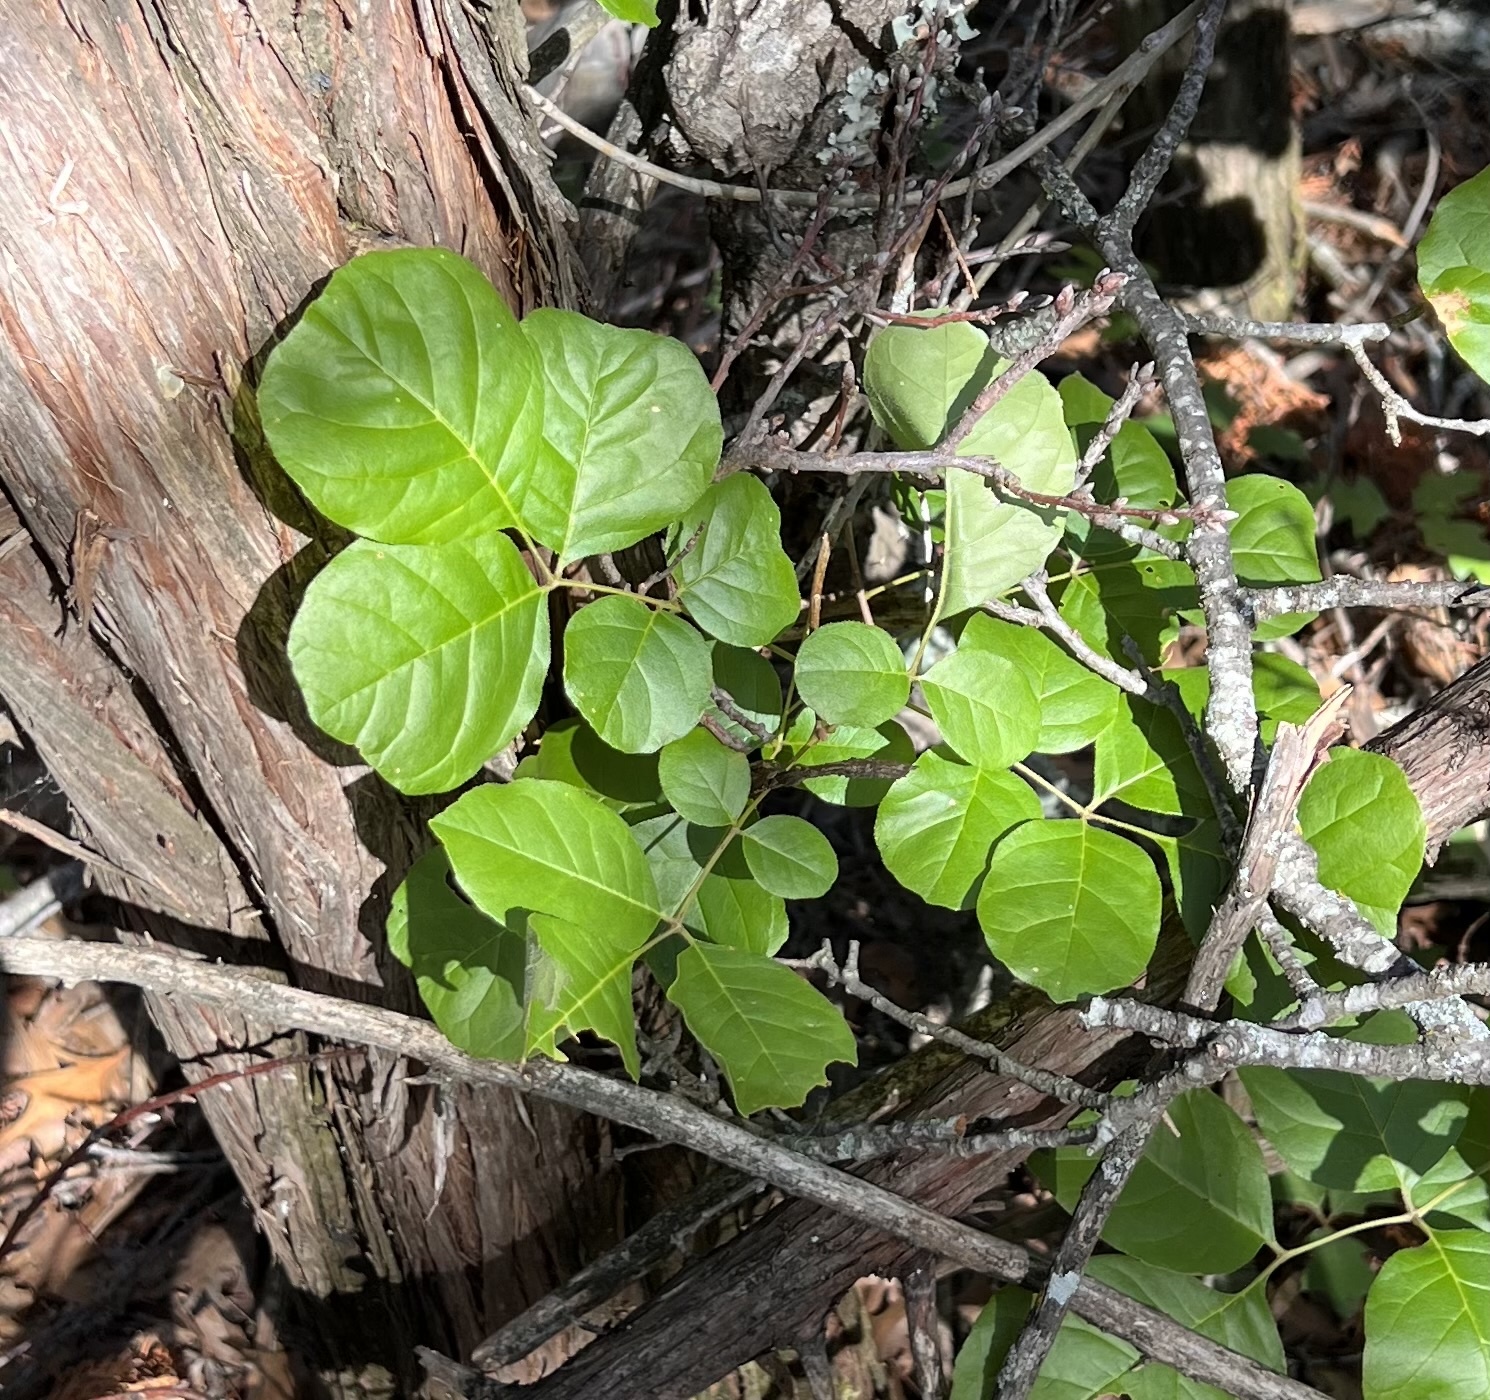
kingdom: Plantae
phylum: Tracheophyta
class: Magnoliopsida
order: Lamiales
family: Oleaceae
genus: Fraxinus
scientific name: Fraxinus albicans
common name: Texas ash
